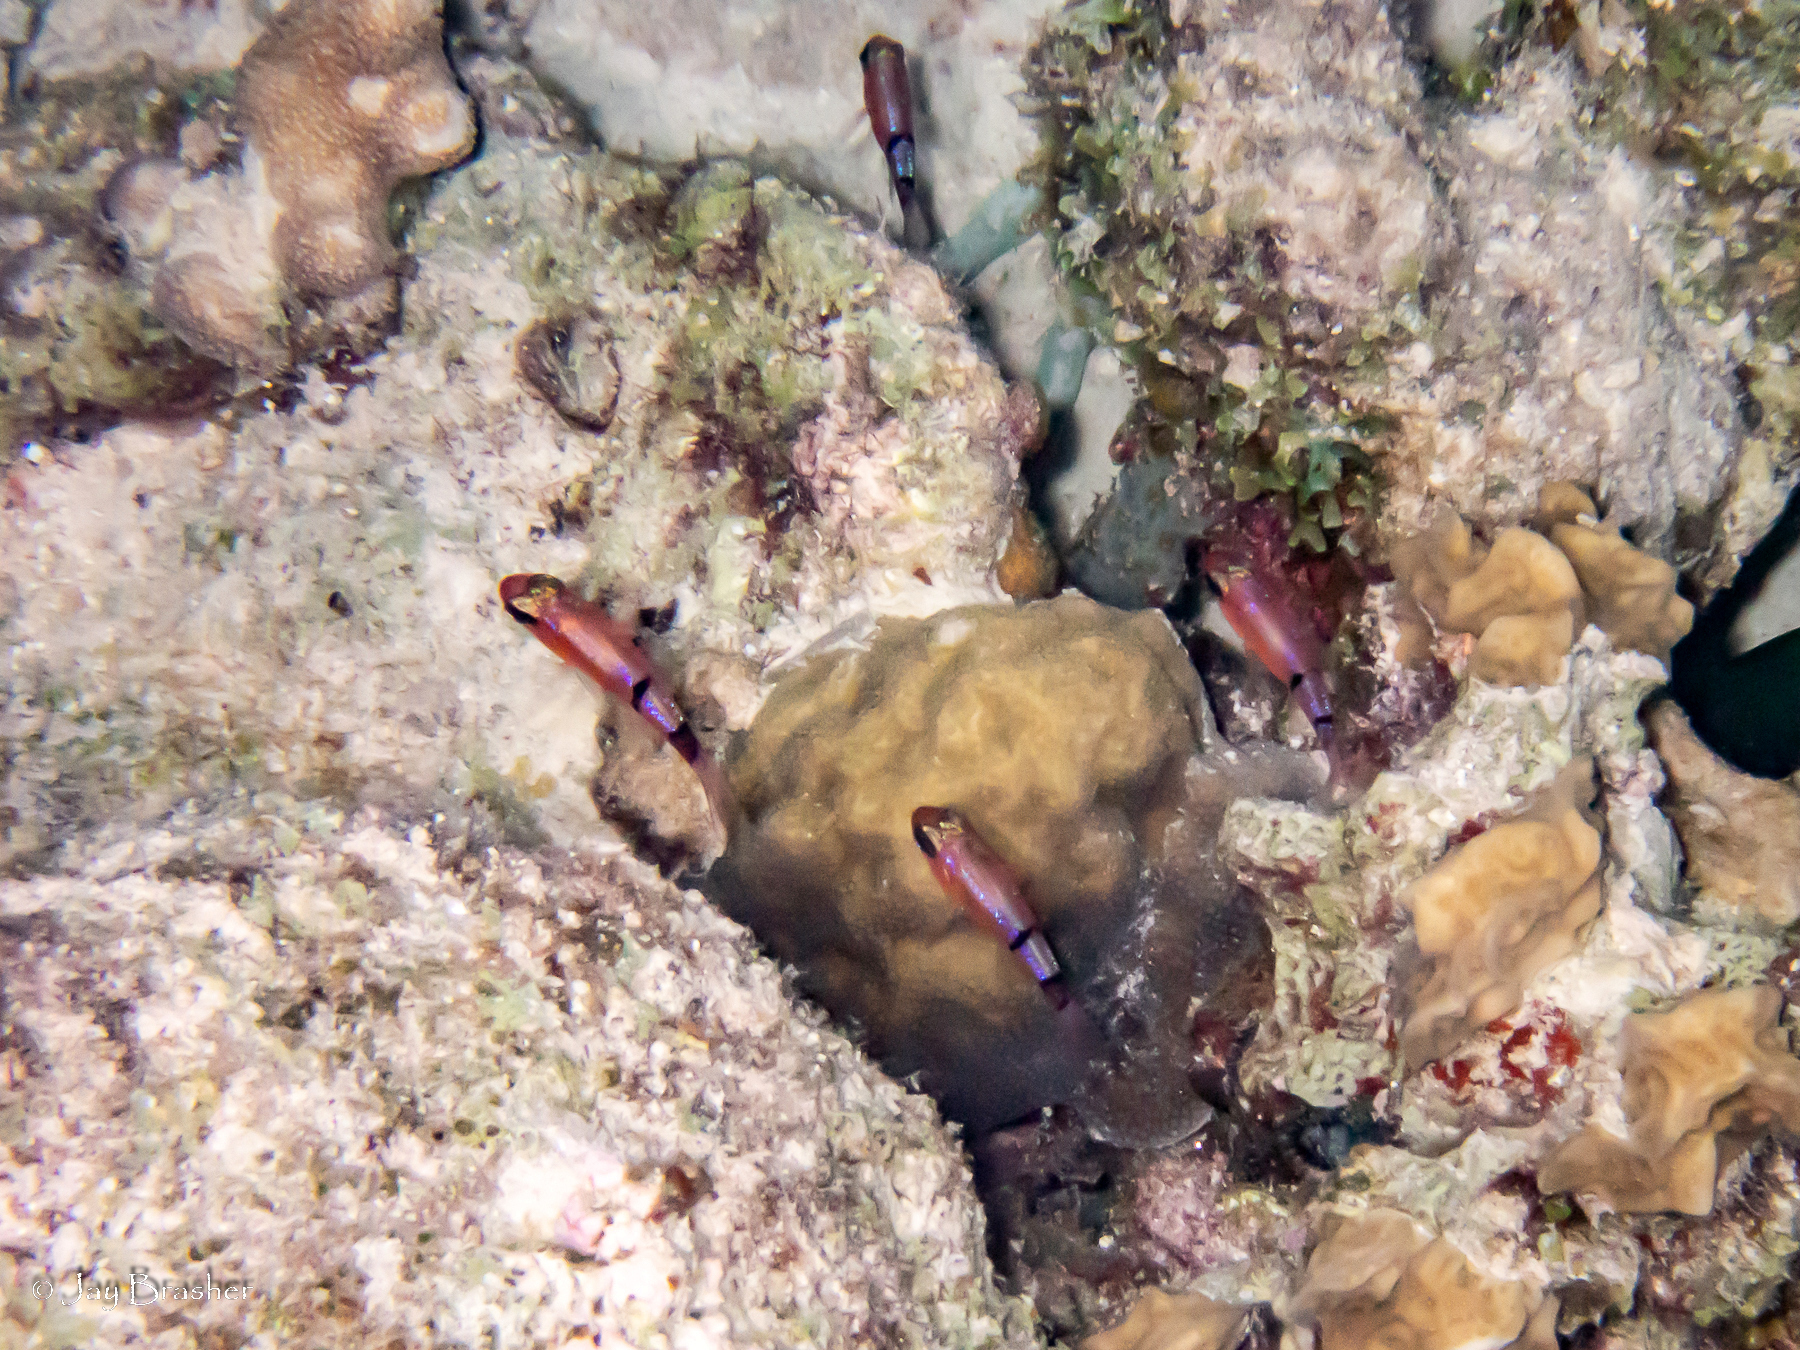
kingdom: Animalia
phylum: Chordata
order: Perciformes
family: Apogonidae
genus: Apogon
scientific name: Apogon townsendi
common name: Belted cardinalfish
